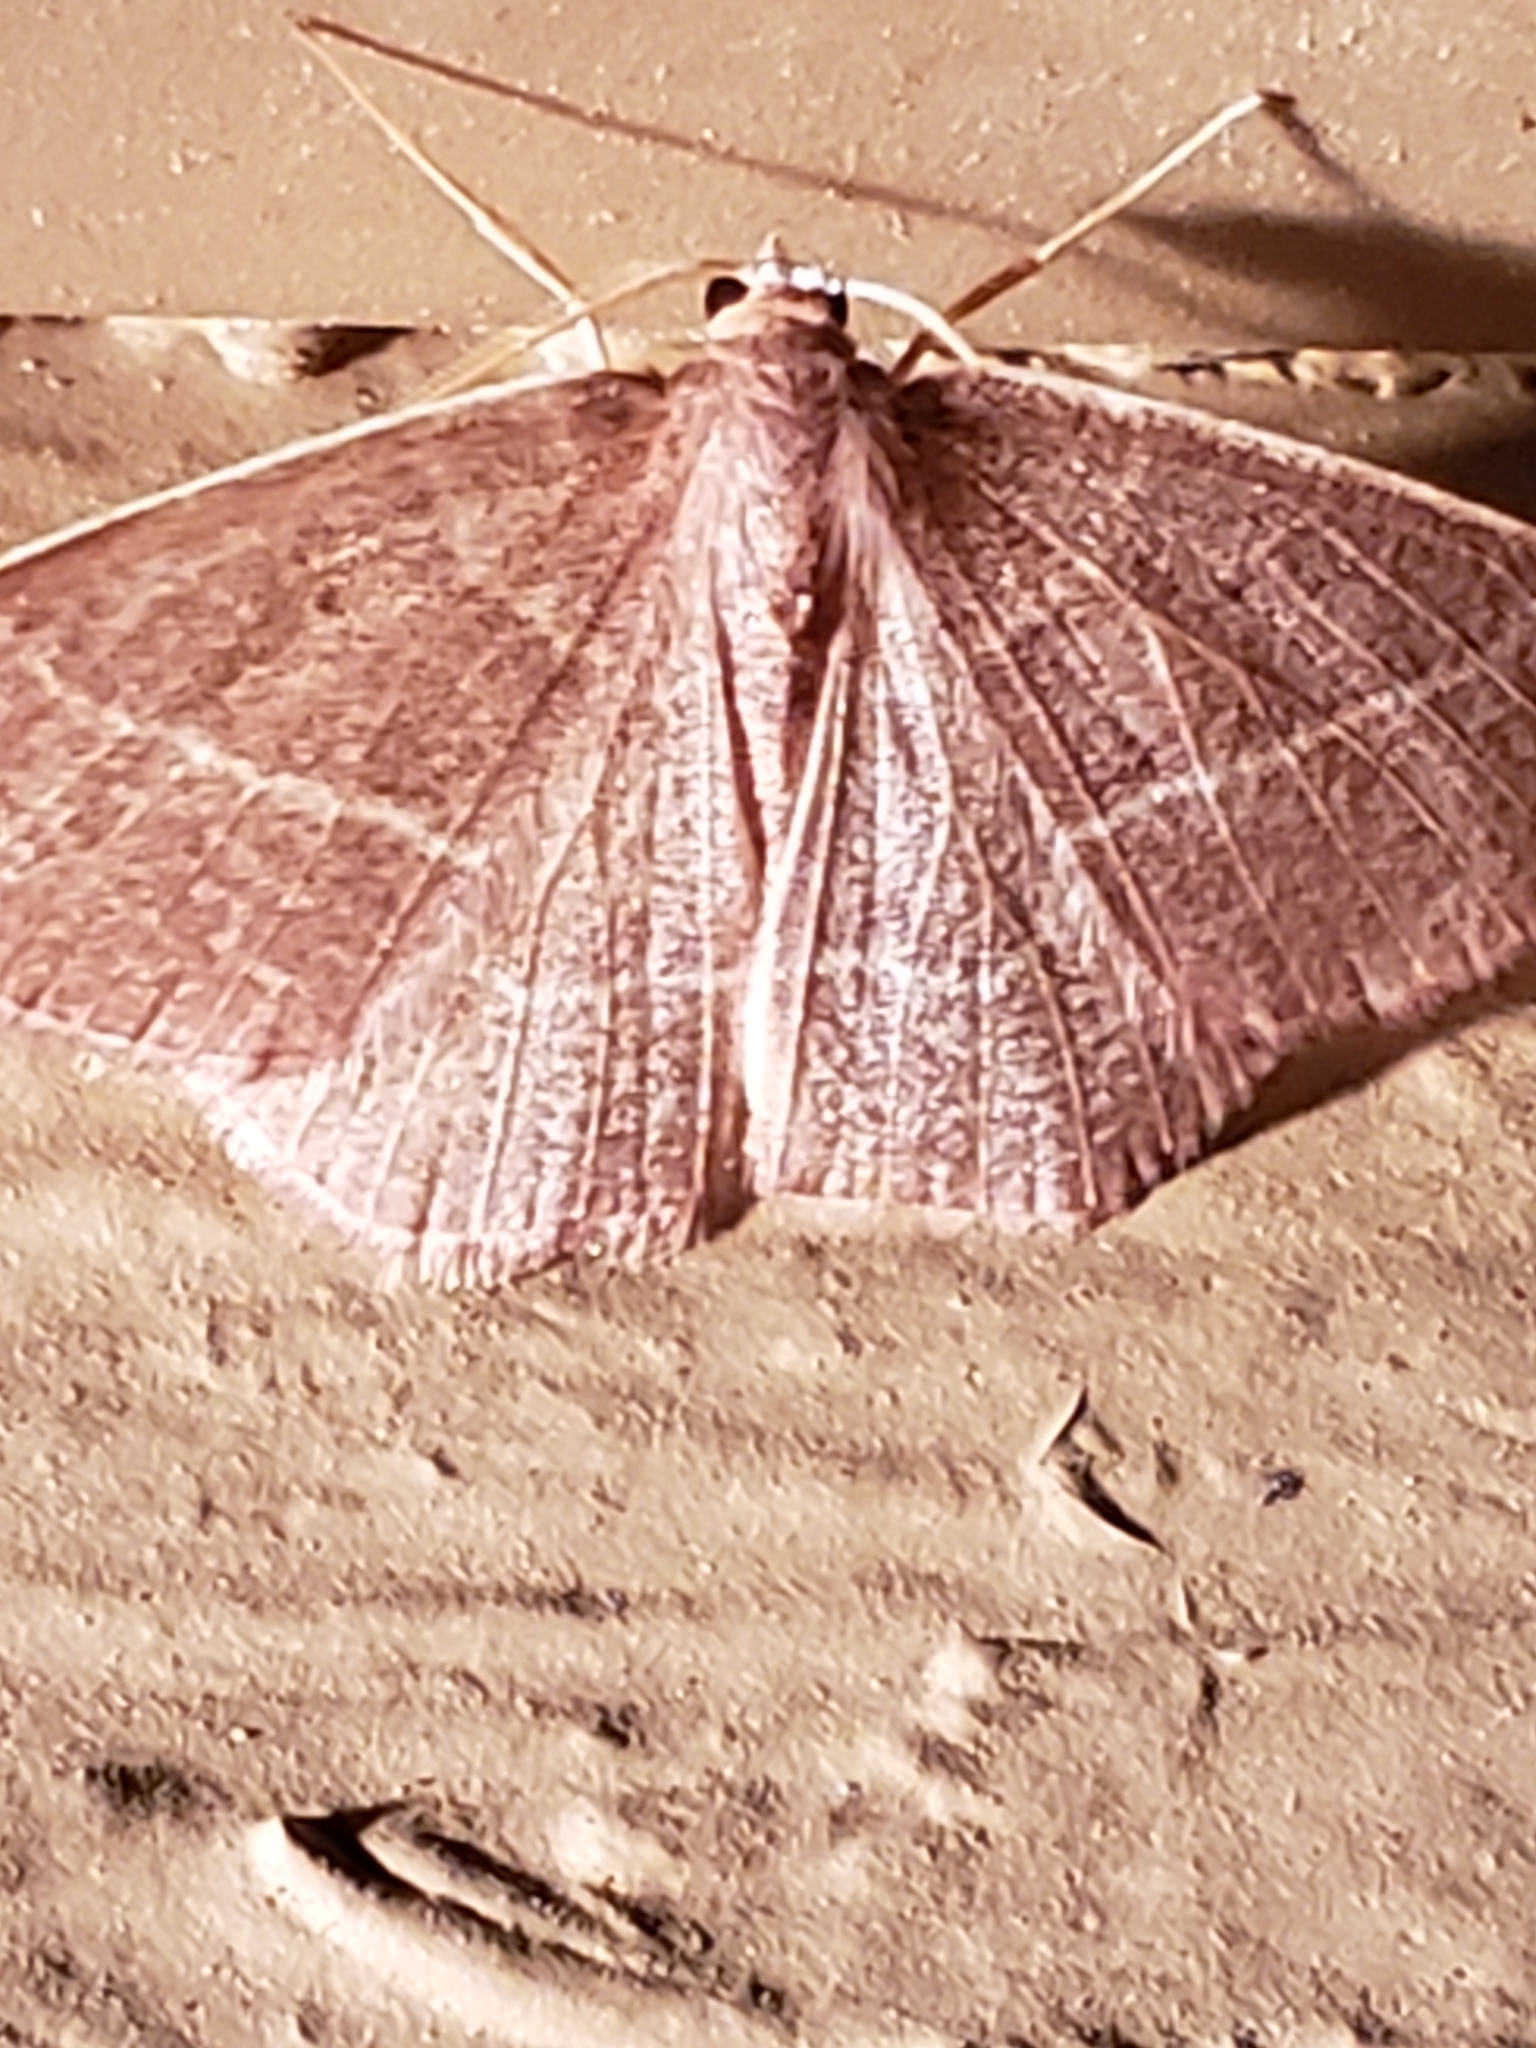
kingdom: Animalia
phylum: Arthropoda
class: Insecta
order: Lepidoptera
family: Geometridae
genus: Nemoria
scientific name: Nemoria bistriaria
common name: Red-fringed emerald
